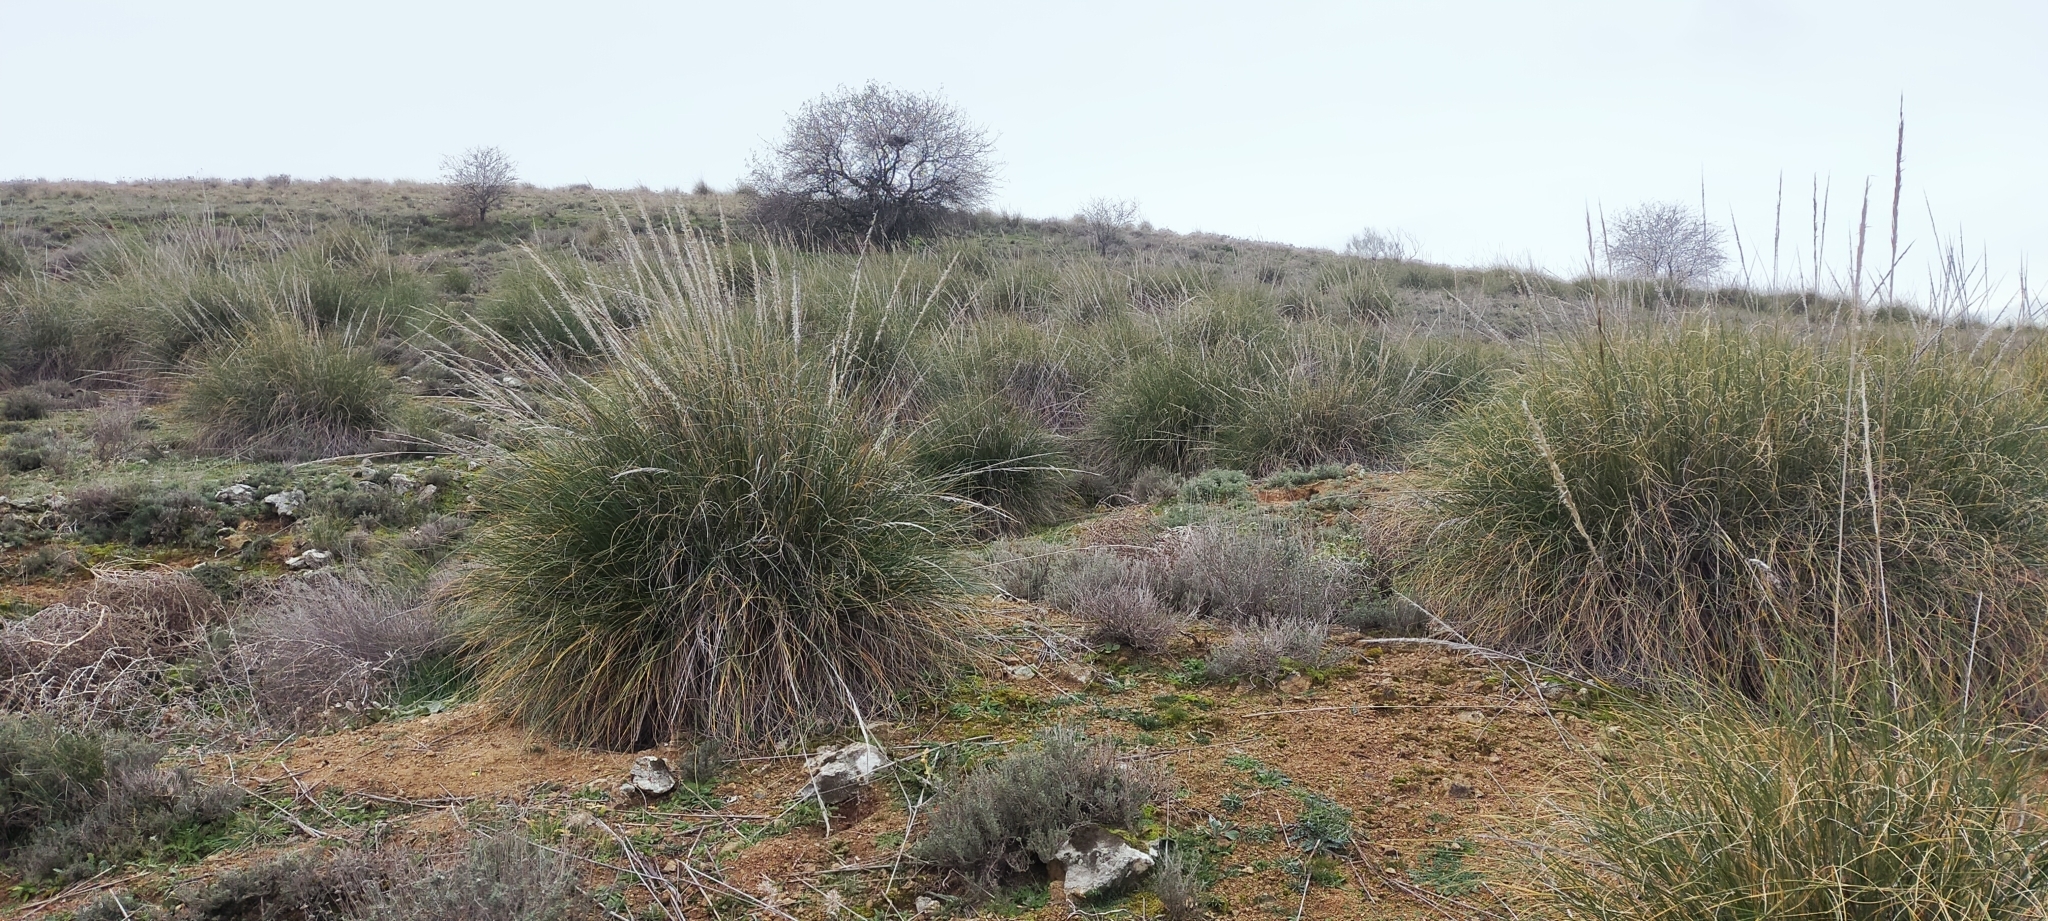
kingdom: Plantae
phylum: Tracheophyta
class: Liliopsida
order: Poales
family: Poaceae
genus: Macrochloa
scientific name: Macrochloa tenacissima
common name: Alfa grass
